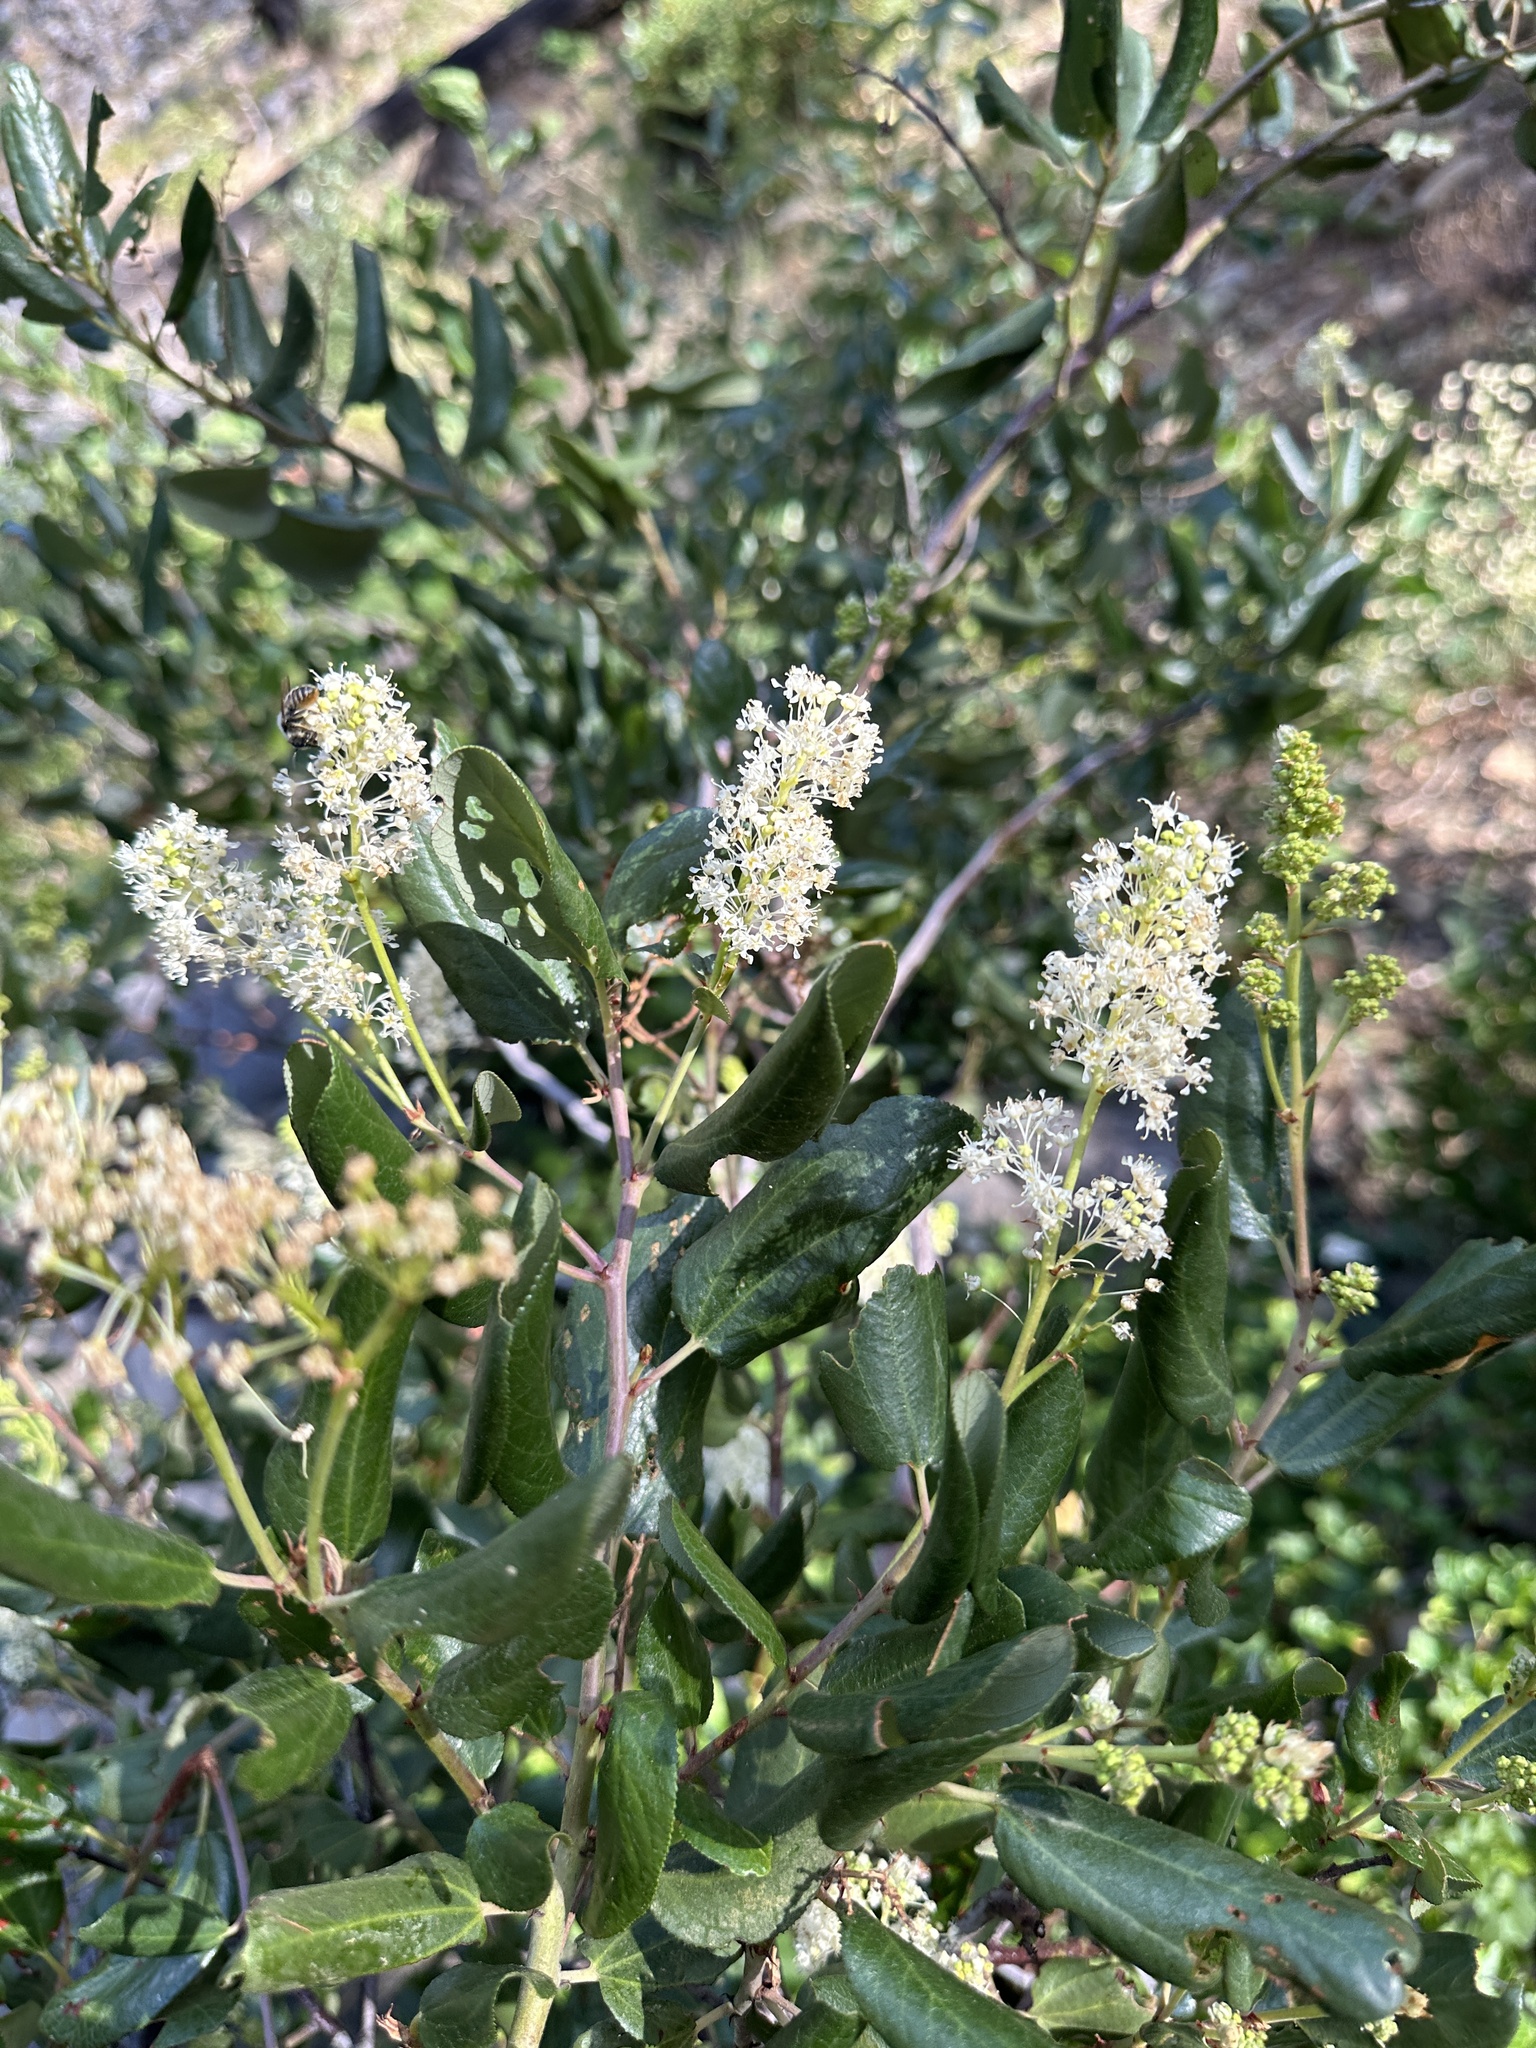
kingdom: Plantae
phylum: Tracheophyta
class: Magnoliopsida
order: Rosales
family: Rhamnaceae
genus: Ceanothus
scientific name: Ceanothus velutinus
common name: Snowbrush
